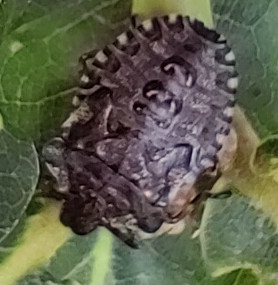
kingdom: Animalia
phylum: Arthropoda
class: Insecta
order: Hemiptera
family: Pentatomidae
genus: Pentatoma
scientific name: Pentatoma rufipes
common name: Forest bug
